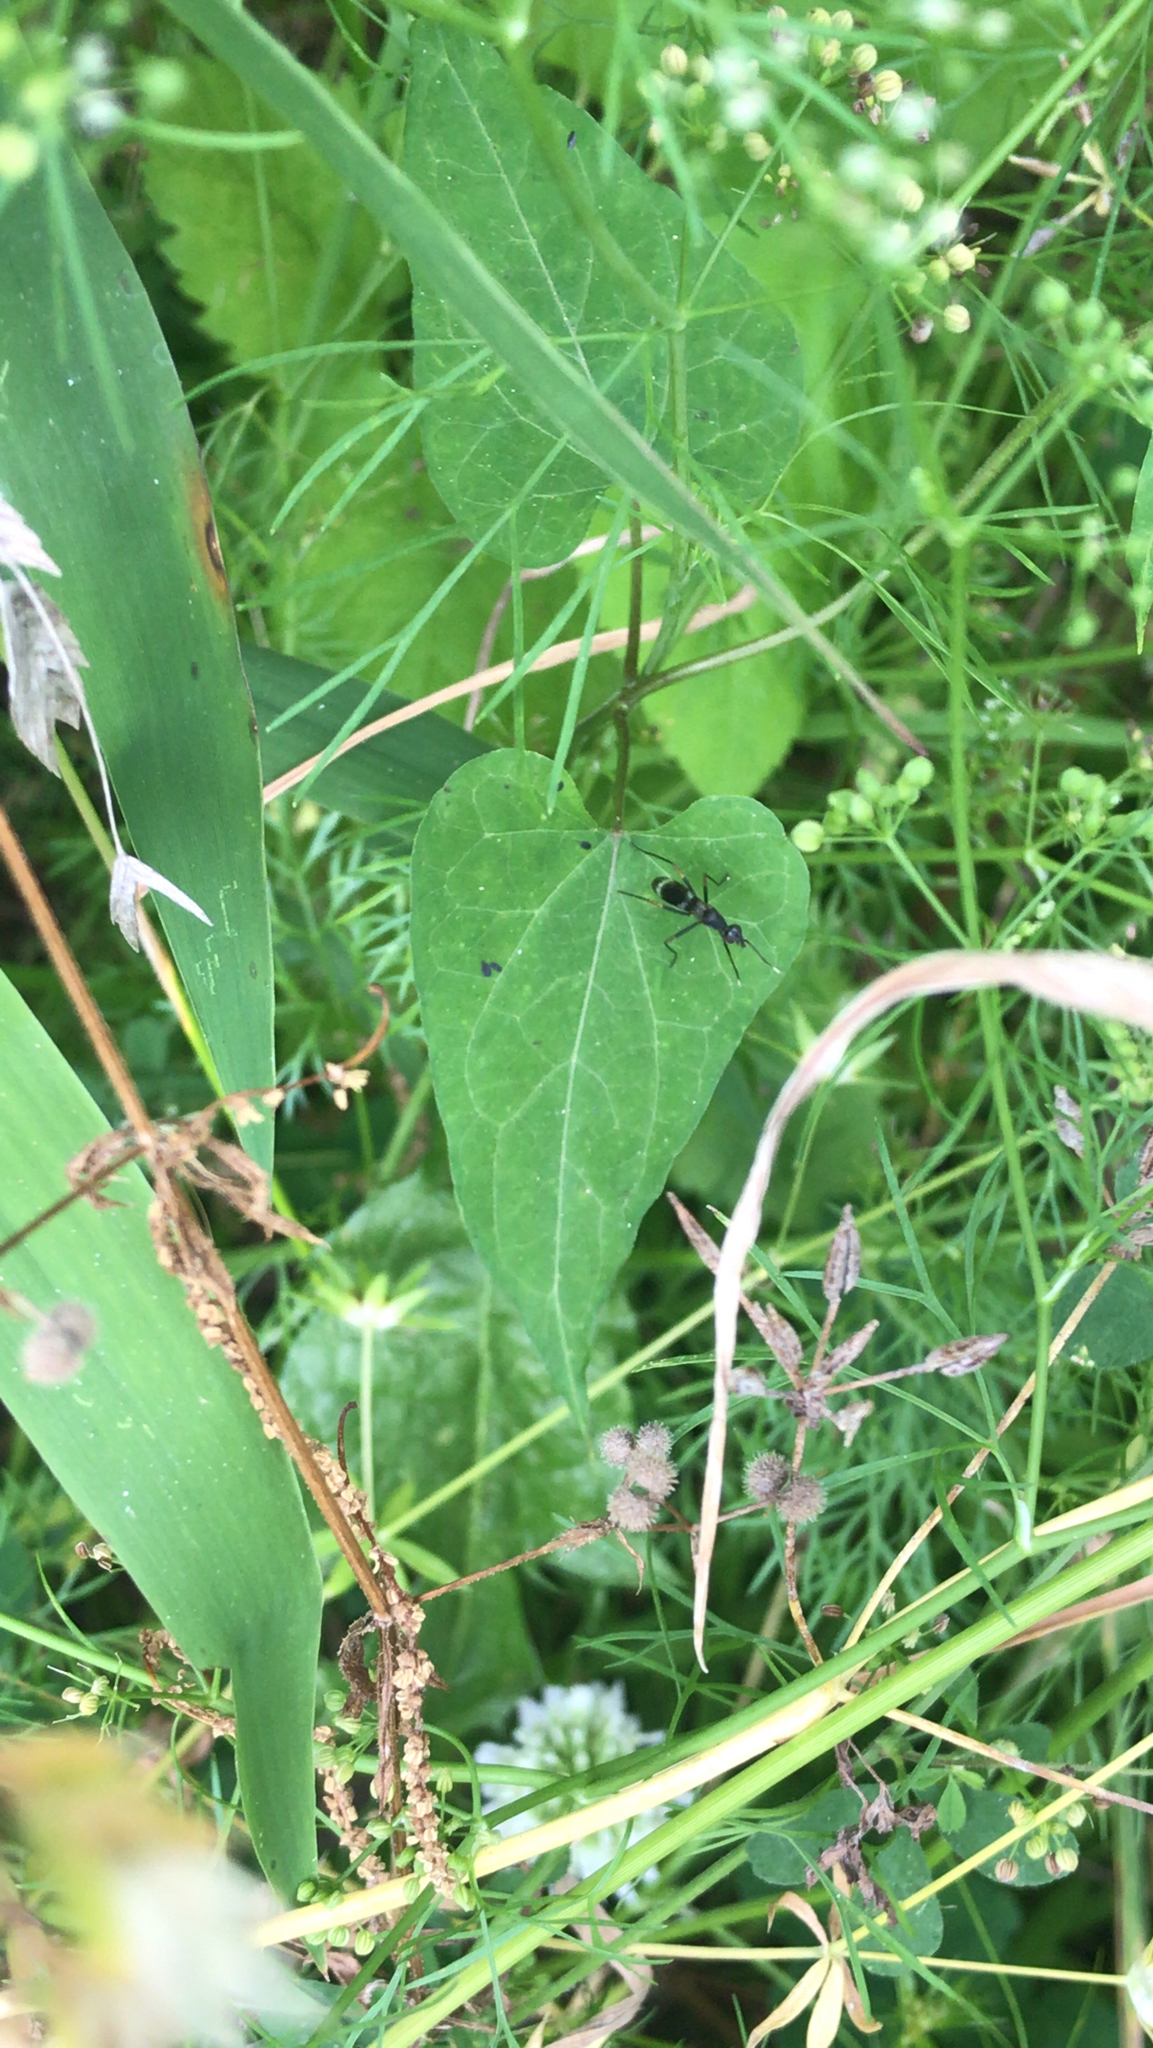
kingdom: Animalia
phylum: Arthropoda
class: Insecta
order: Diptera
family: Micropezidae
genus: Taeniaptera
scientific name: Taeniaptera trivittata
